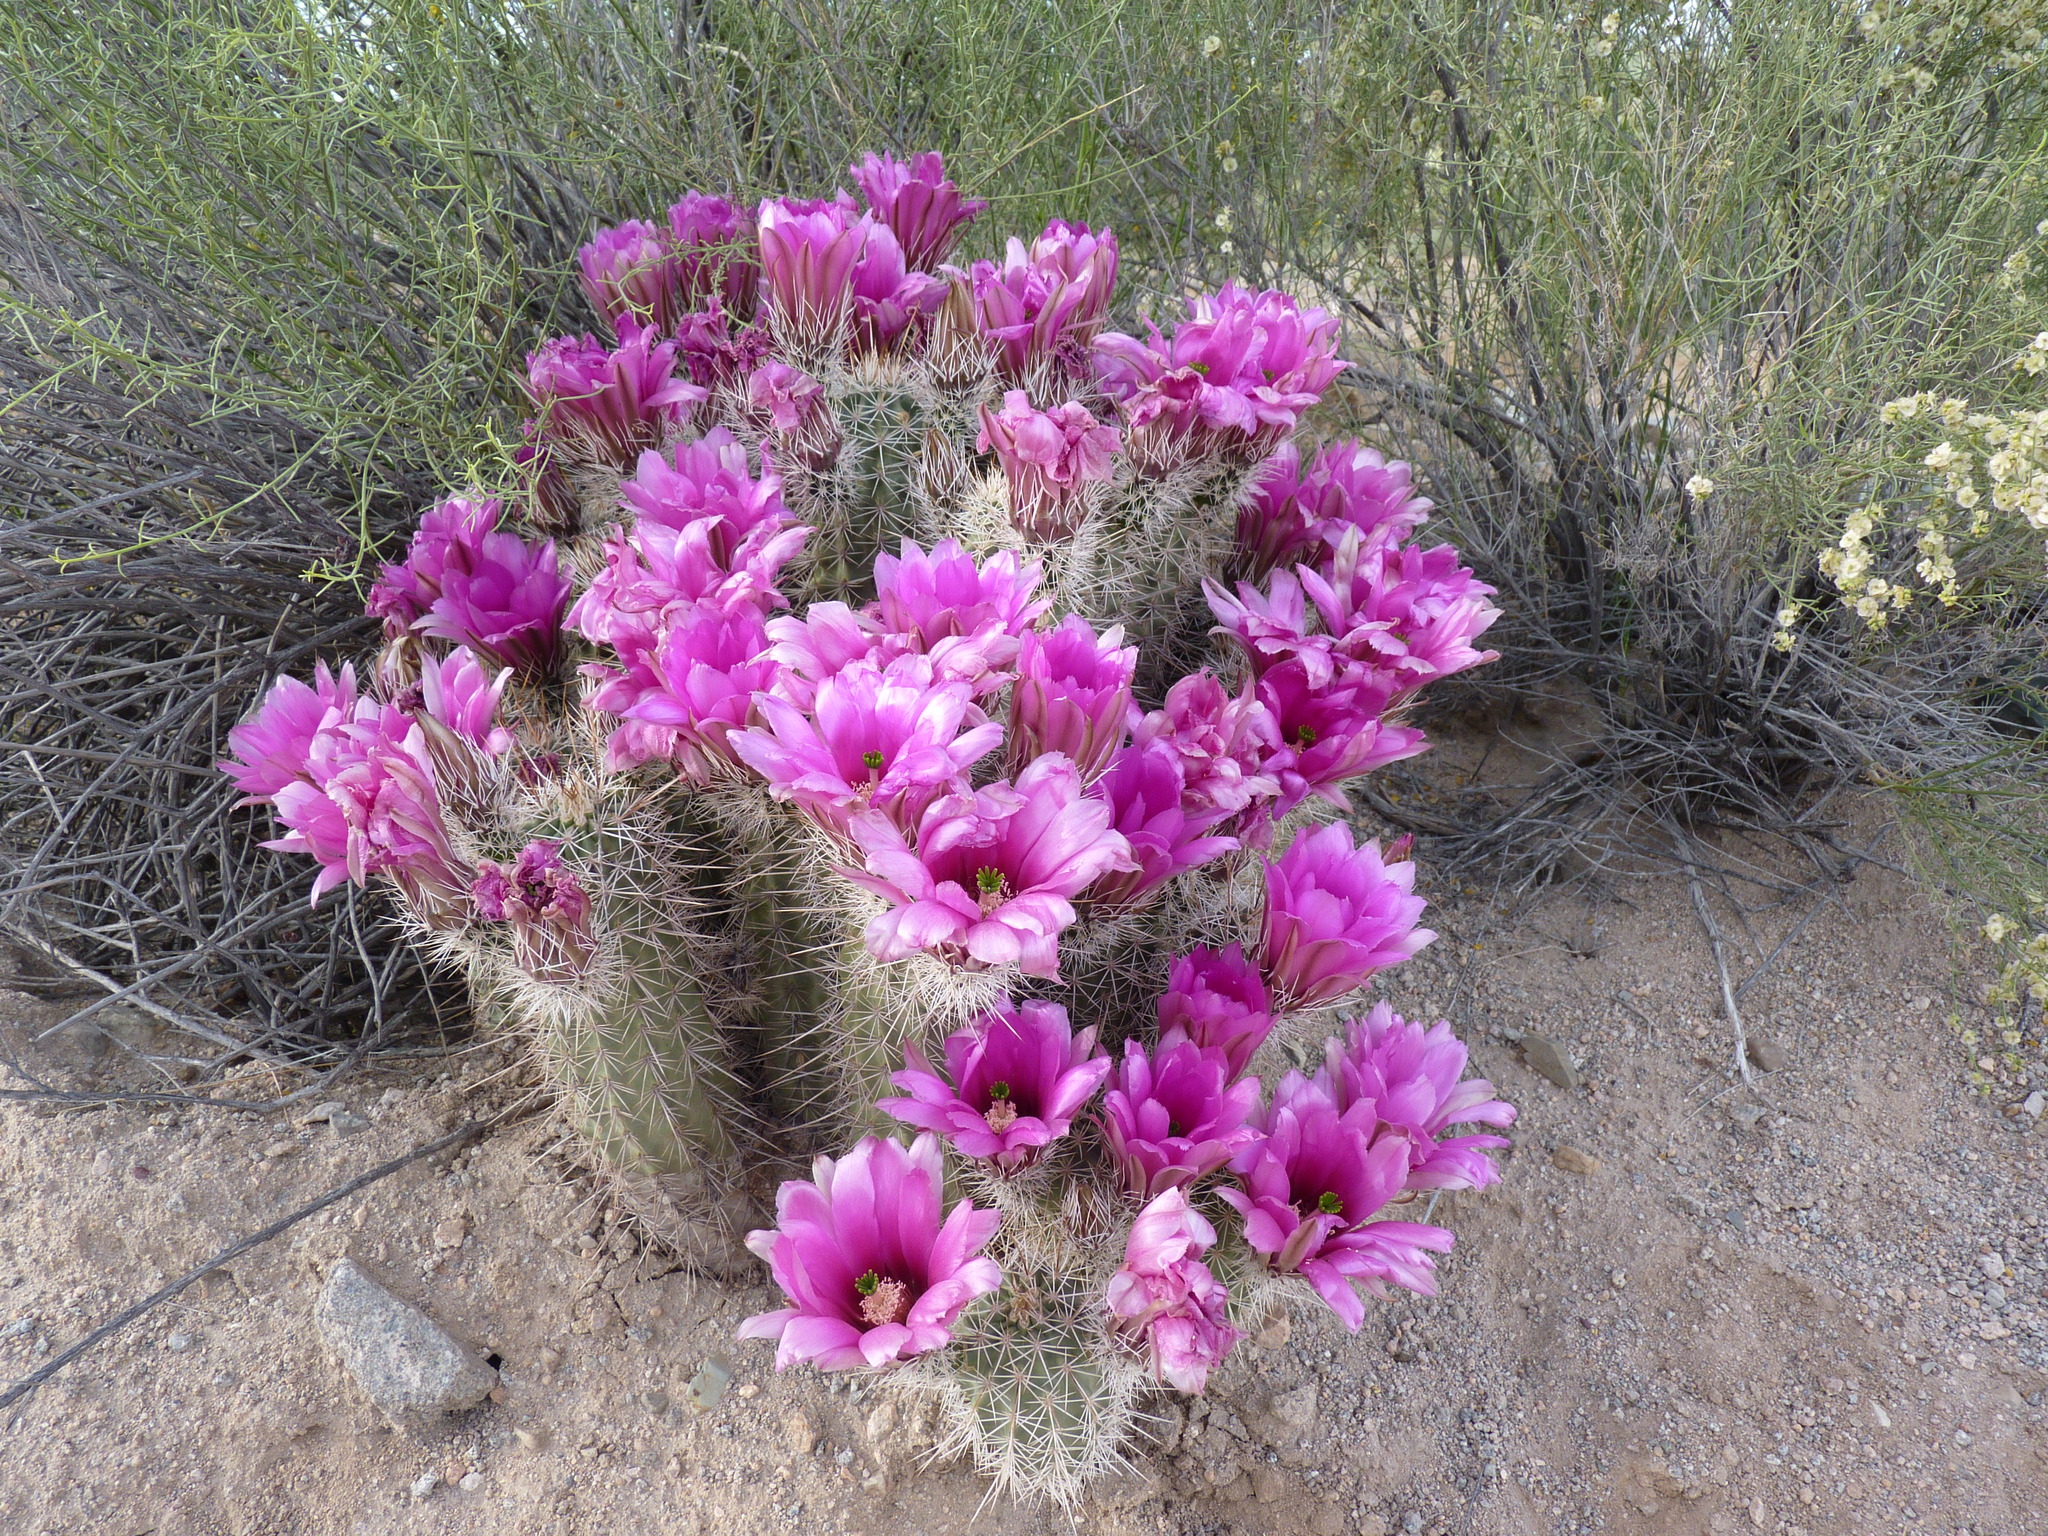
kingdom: Plantae
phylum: Tracheophyta
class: Magnoliopsida
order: Caryophyllales
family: Cactaceae
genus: Echinocereus
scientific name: Echinocereus fasciculatus
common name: Bundle hedgehog
